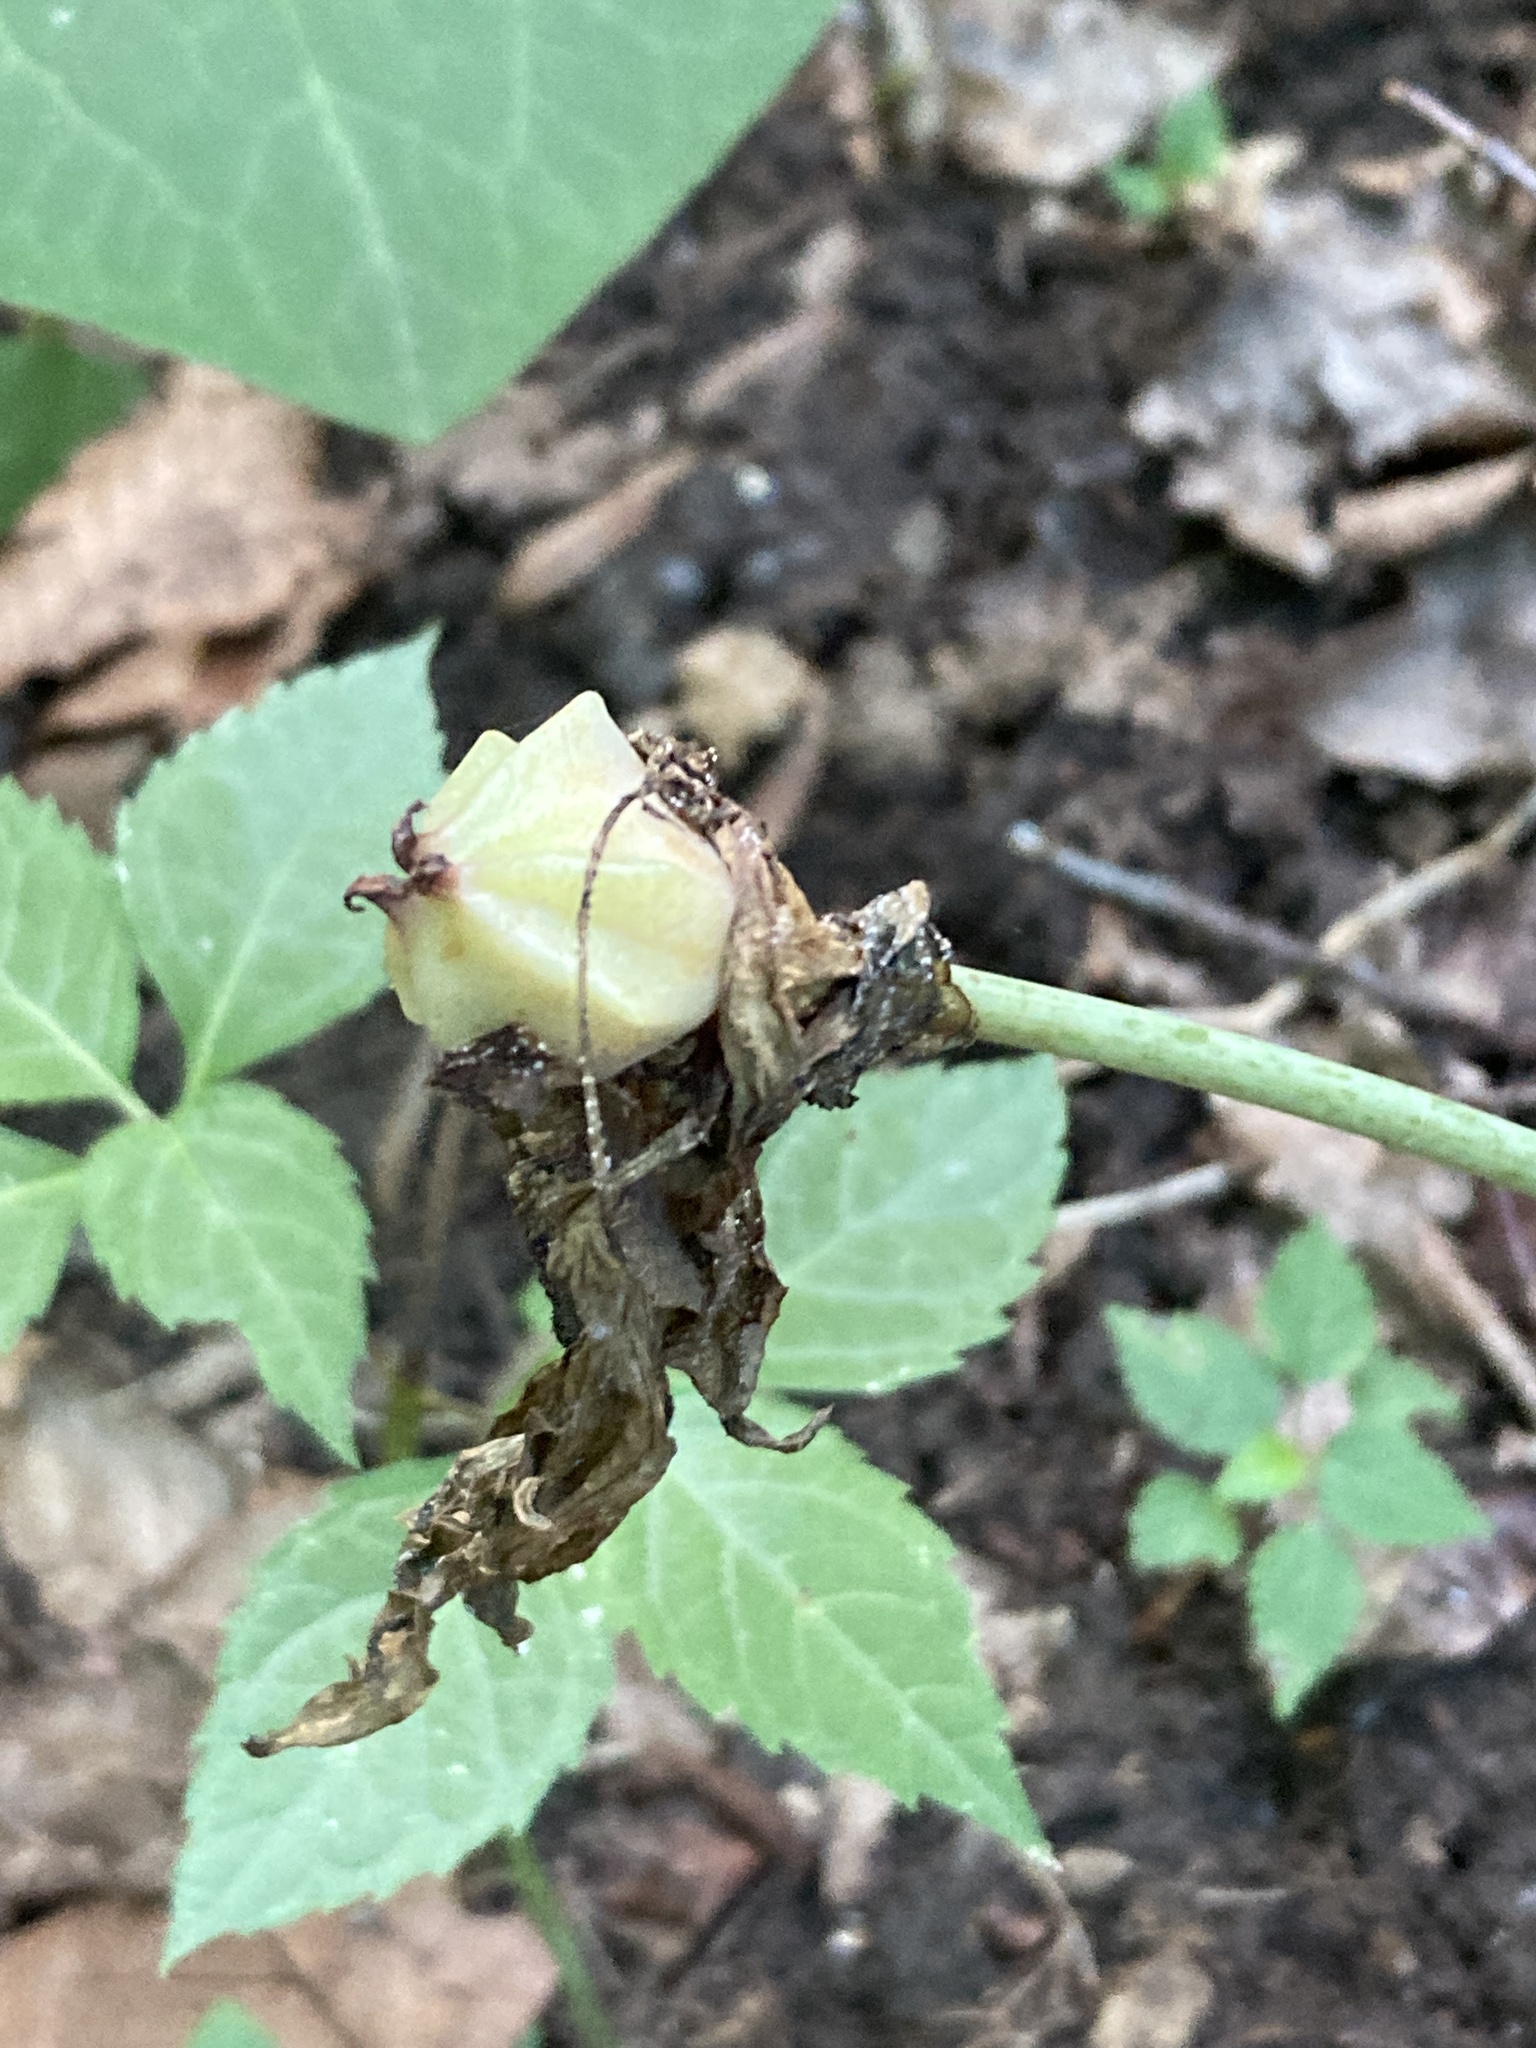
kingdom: Plantae
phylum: Tracheophyta
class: Liliopsida
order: Liliales
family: Melanthiaceae
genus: Trillium
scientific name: Trillium recurvatum
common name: Bloody butcher
